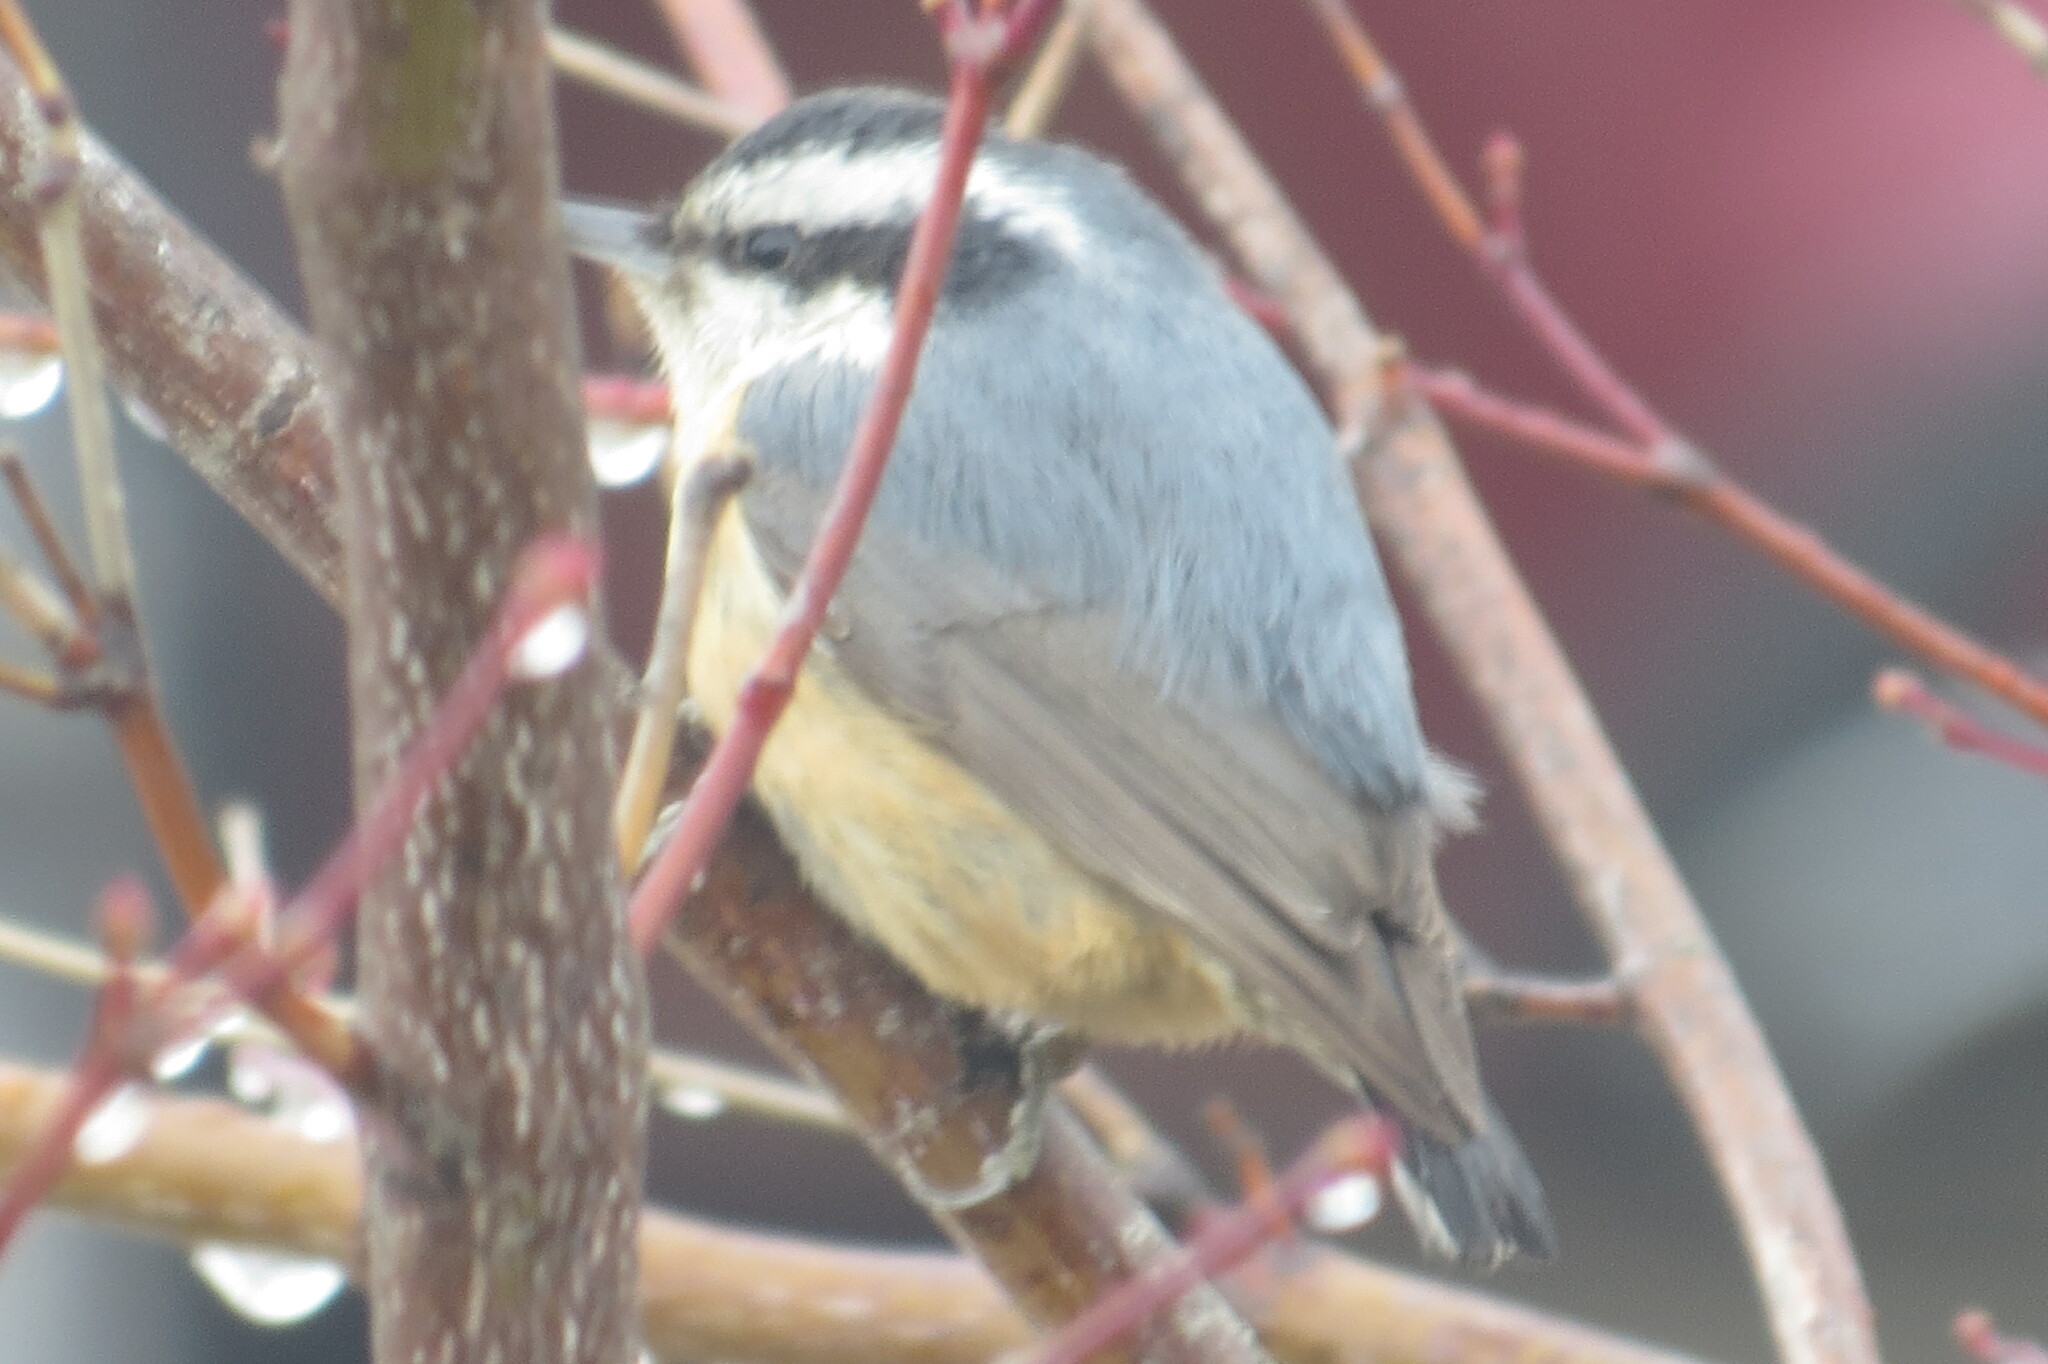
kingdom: Animalia
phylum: Chordata
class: Aves
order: Passeriformes
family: Sittidae
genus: Sitta
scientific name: Sitta canadensis
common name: Red-breasted nuthatch
